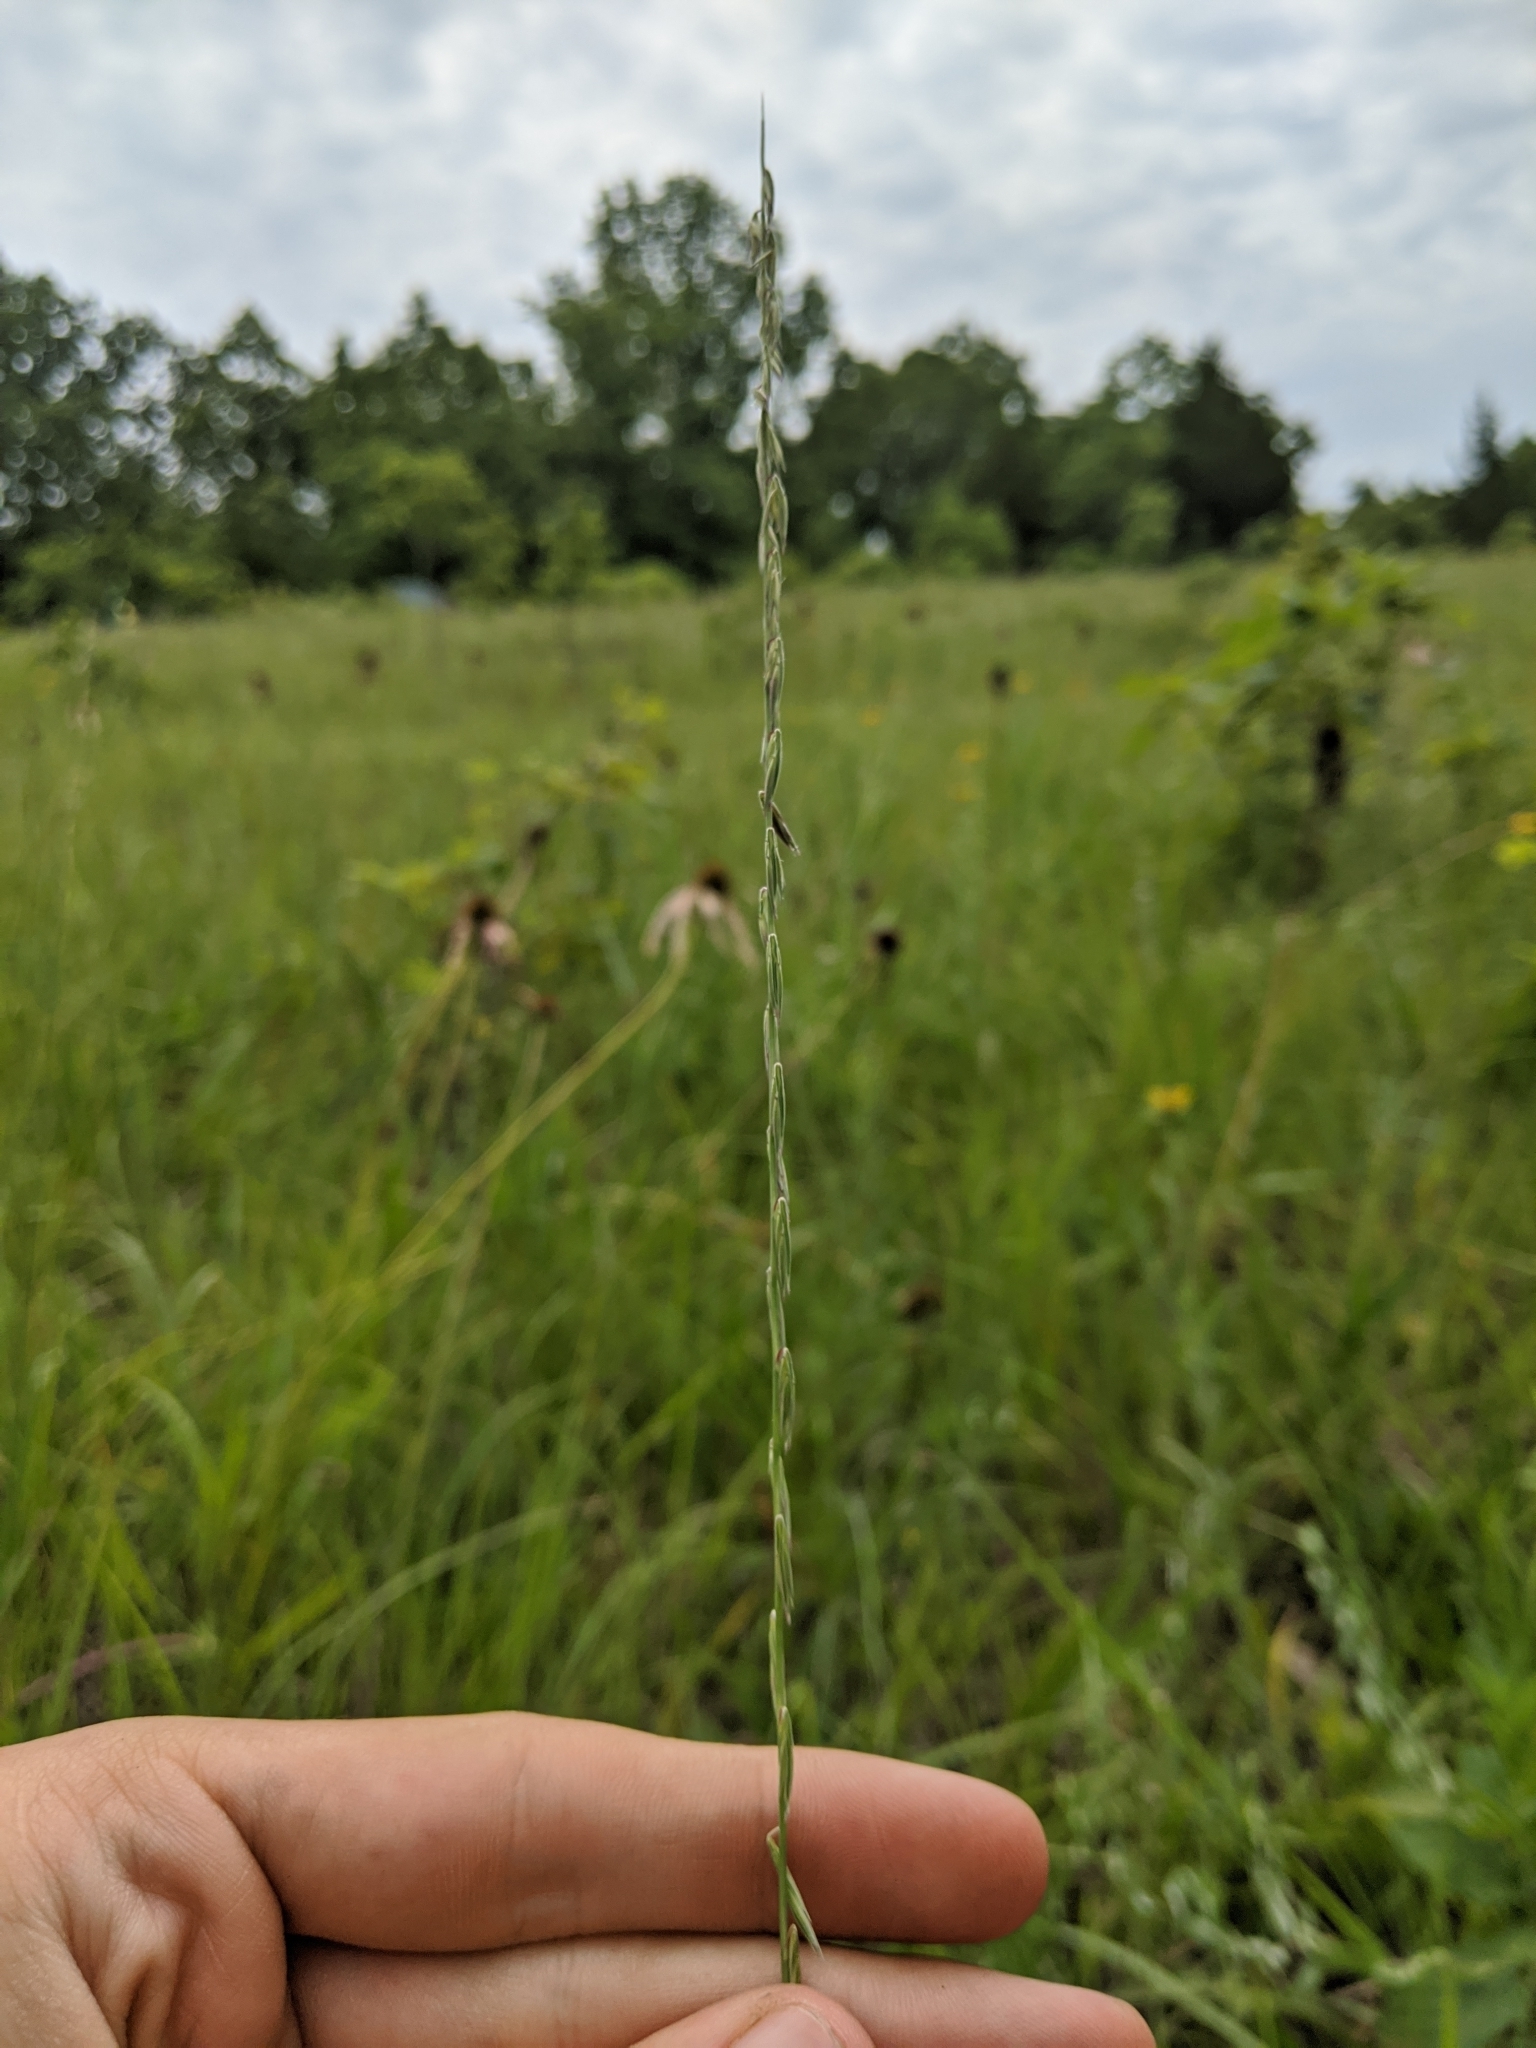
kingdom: Plantae
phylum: Tracheophyta
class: Liliopsida
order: Poales
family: Poaceae
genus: Bouteloua
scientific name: Bouteloua curtipendula
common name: Side-oats grama
